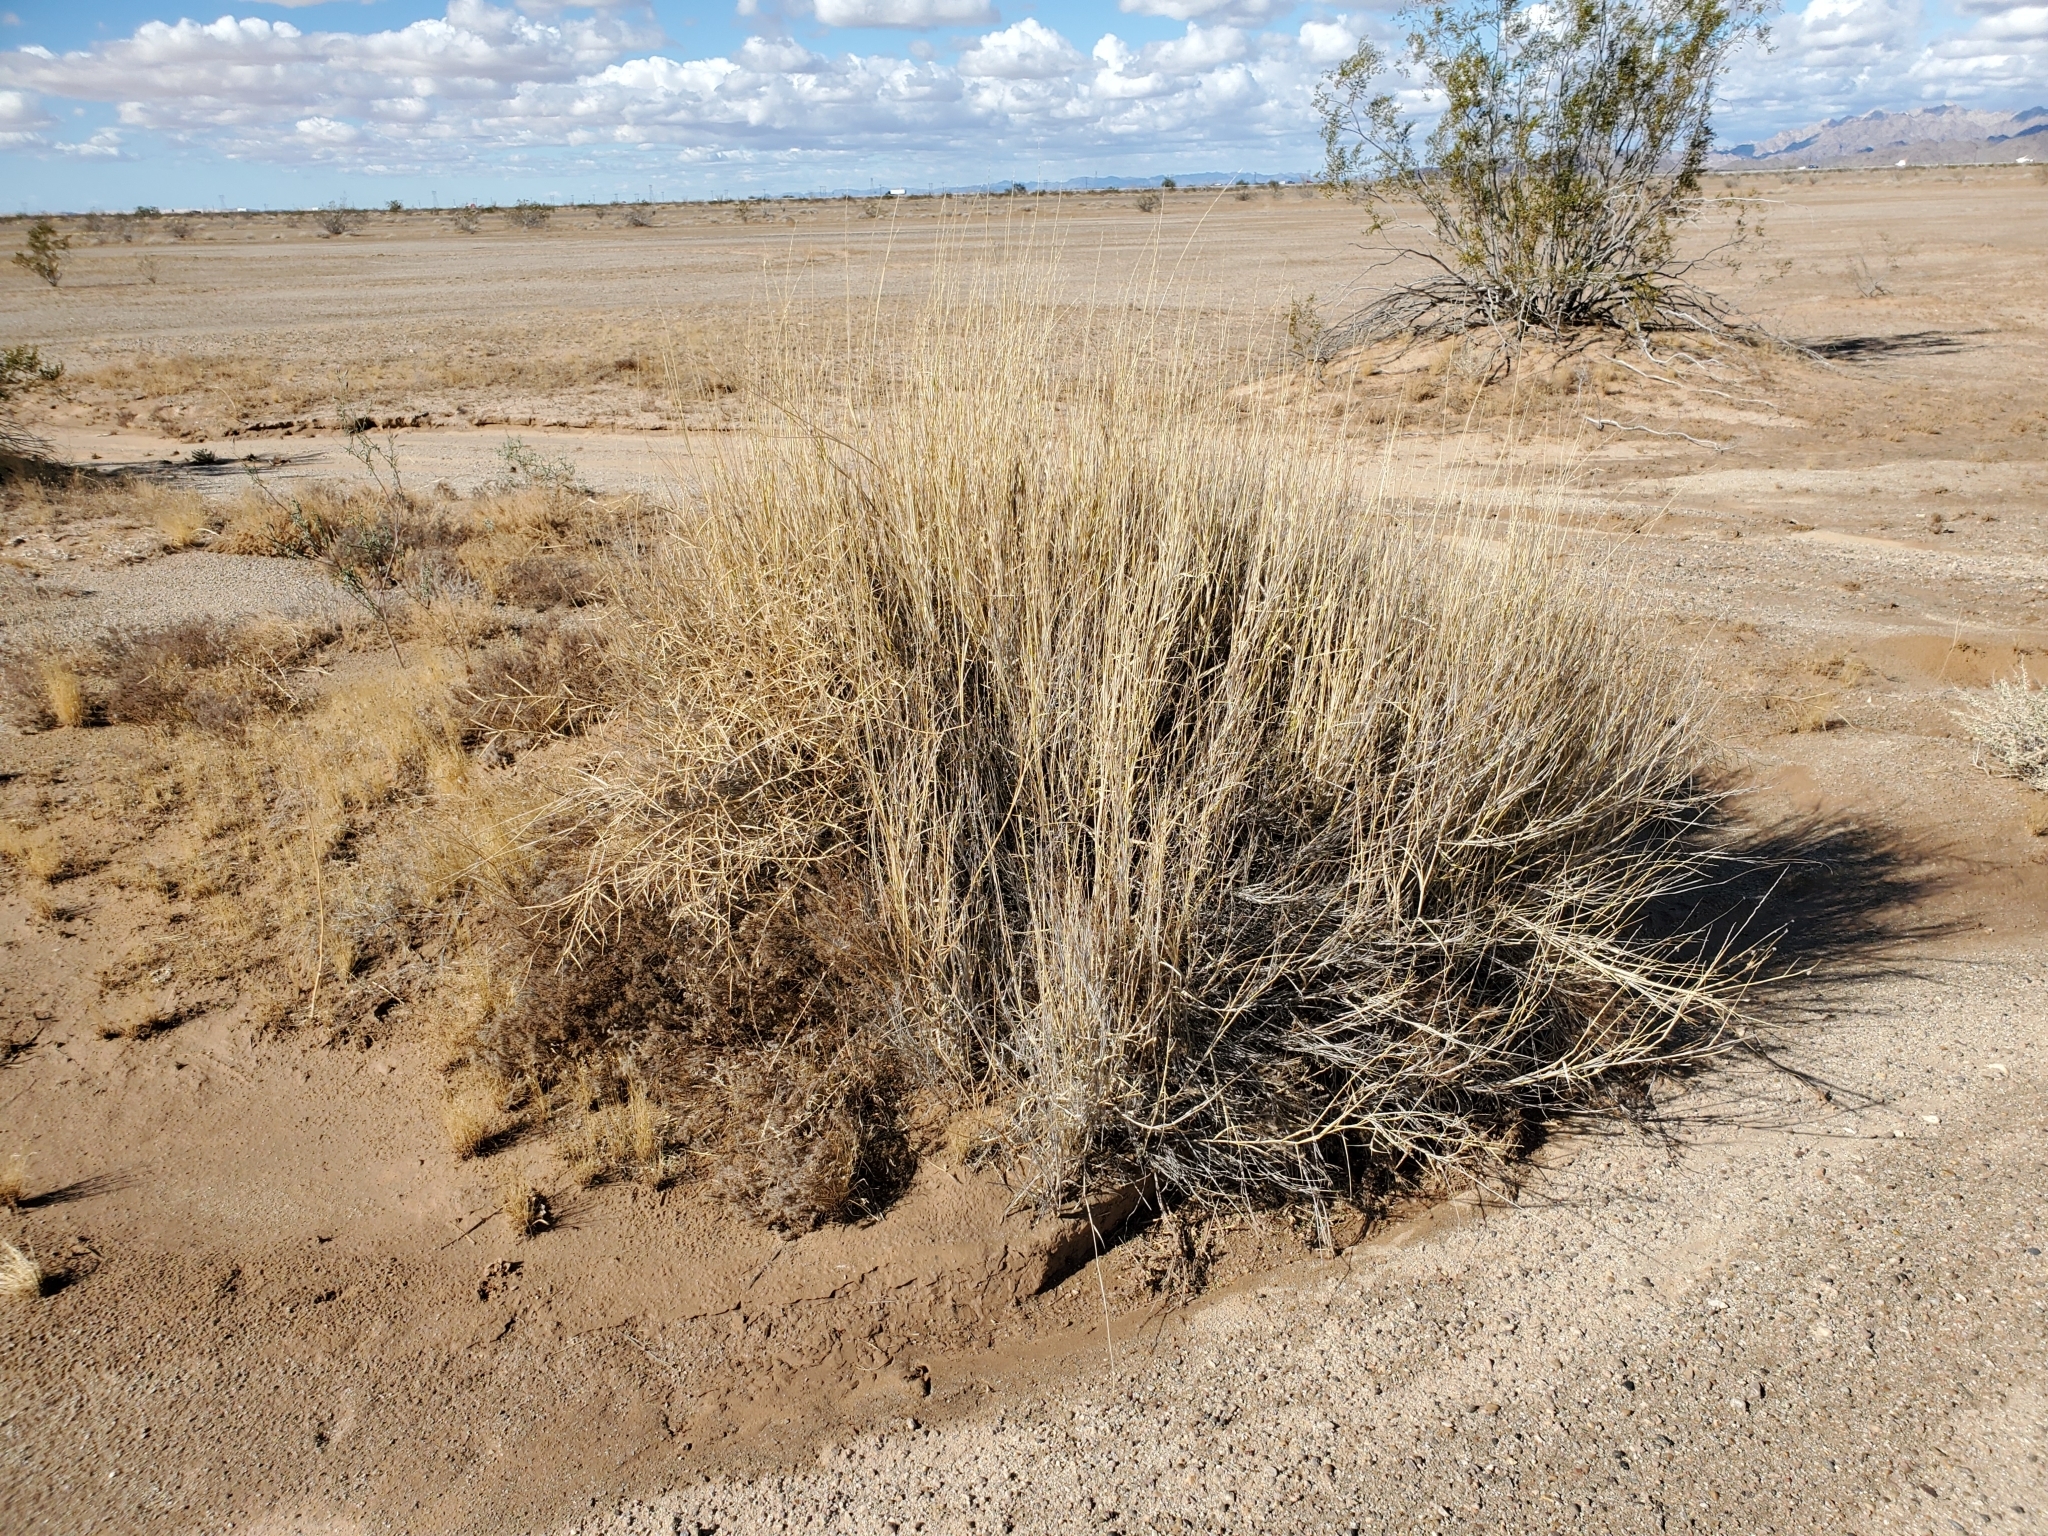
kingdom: Plantae
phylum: Tracheophyta
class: Liliopsida
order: Poales
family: Poaceae
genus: Hilaria
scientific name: Hilaria rigida
